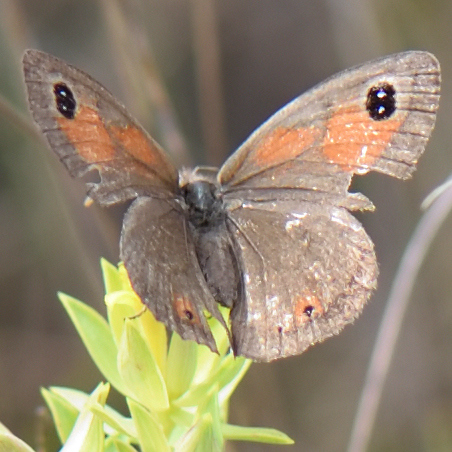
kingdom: Animalia
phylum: Arthropoda
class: Insecta
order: Lepidoptera
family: Nymphalidae
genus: Pseudonympha
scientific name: Pseudonympha magus
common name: Silver-bottom brown
